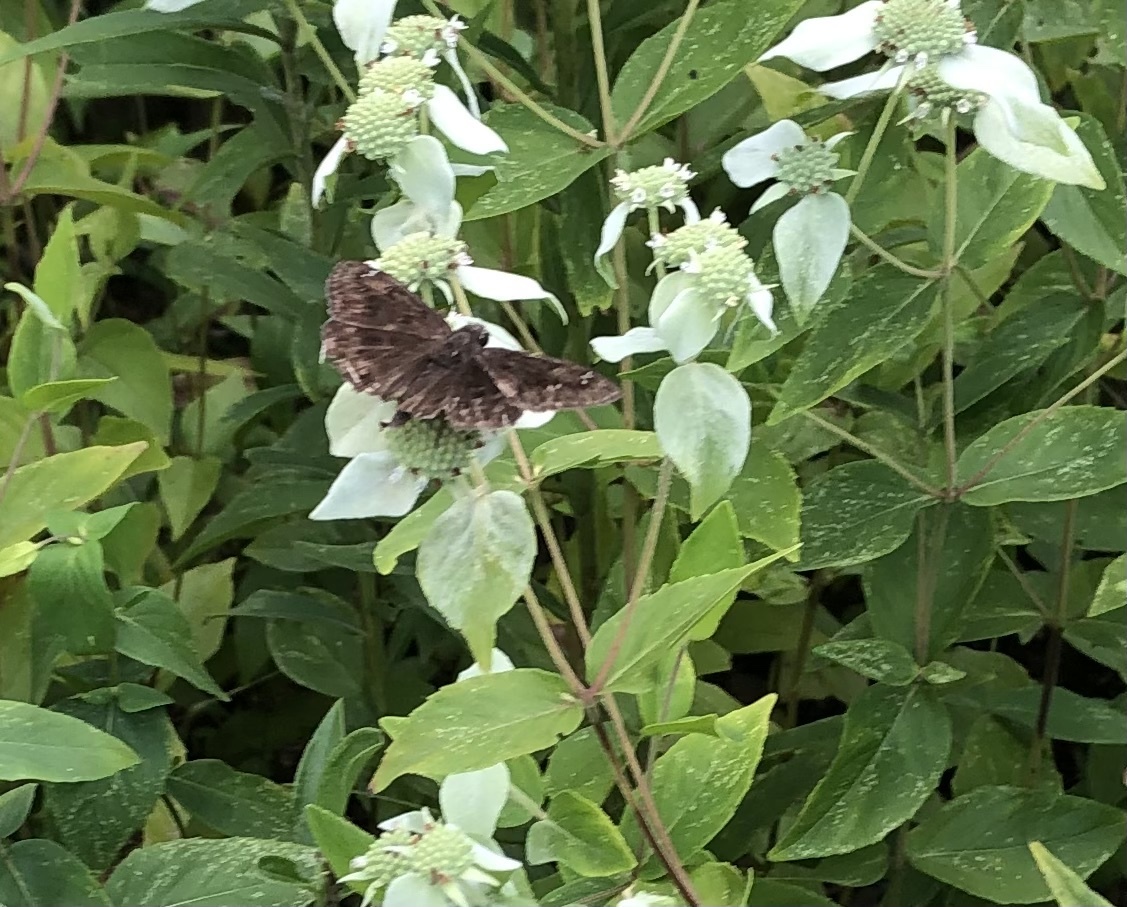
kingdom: Animalia
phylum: Arthropoda
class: Insecta
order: Lepidoptera
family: Hesperiidae
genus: Erynnis
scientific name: Erynnis horatius
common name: Horace's duskywing
